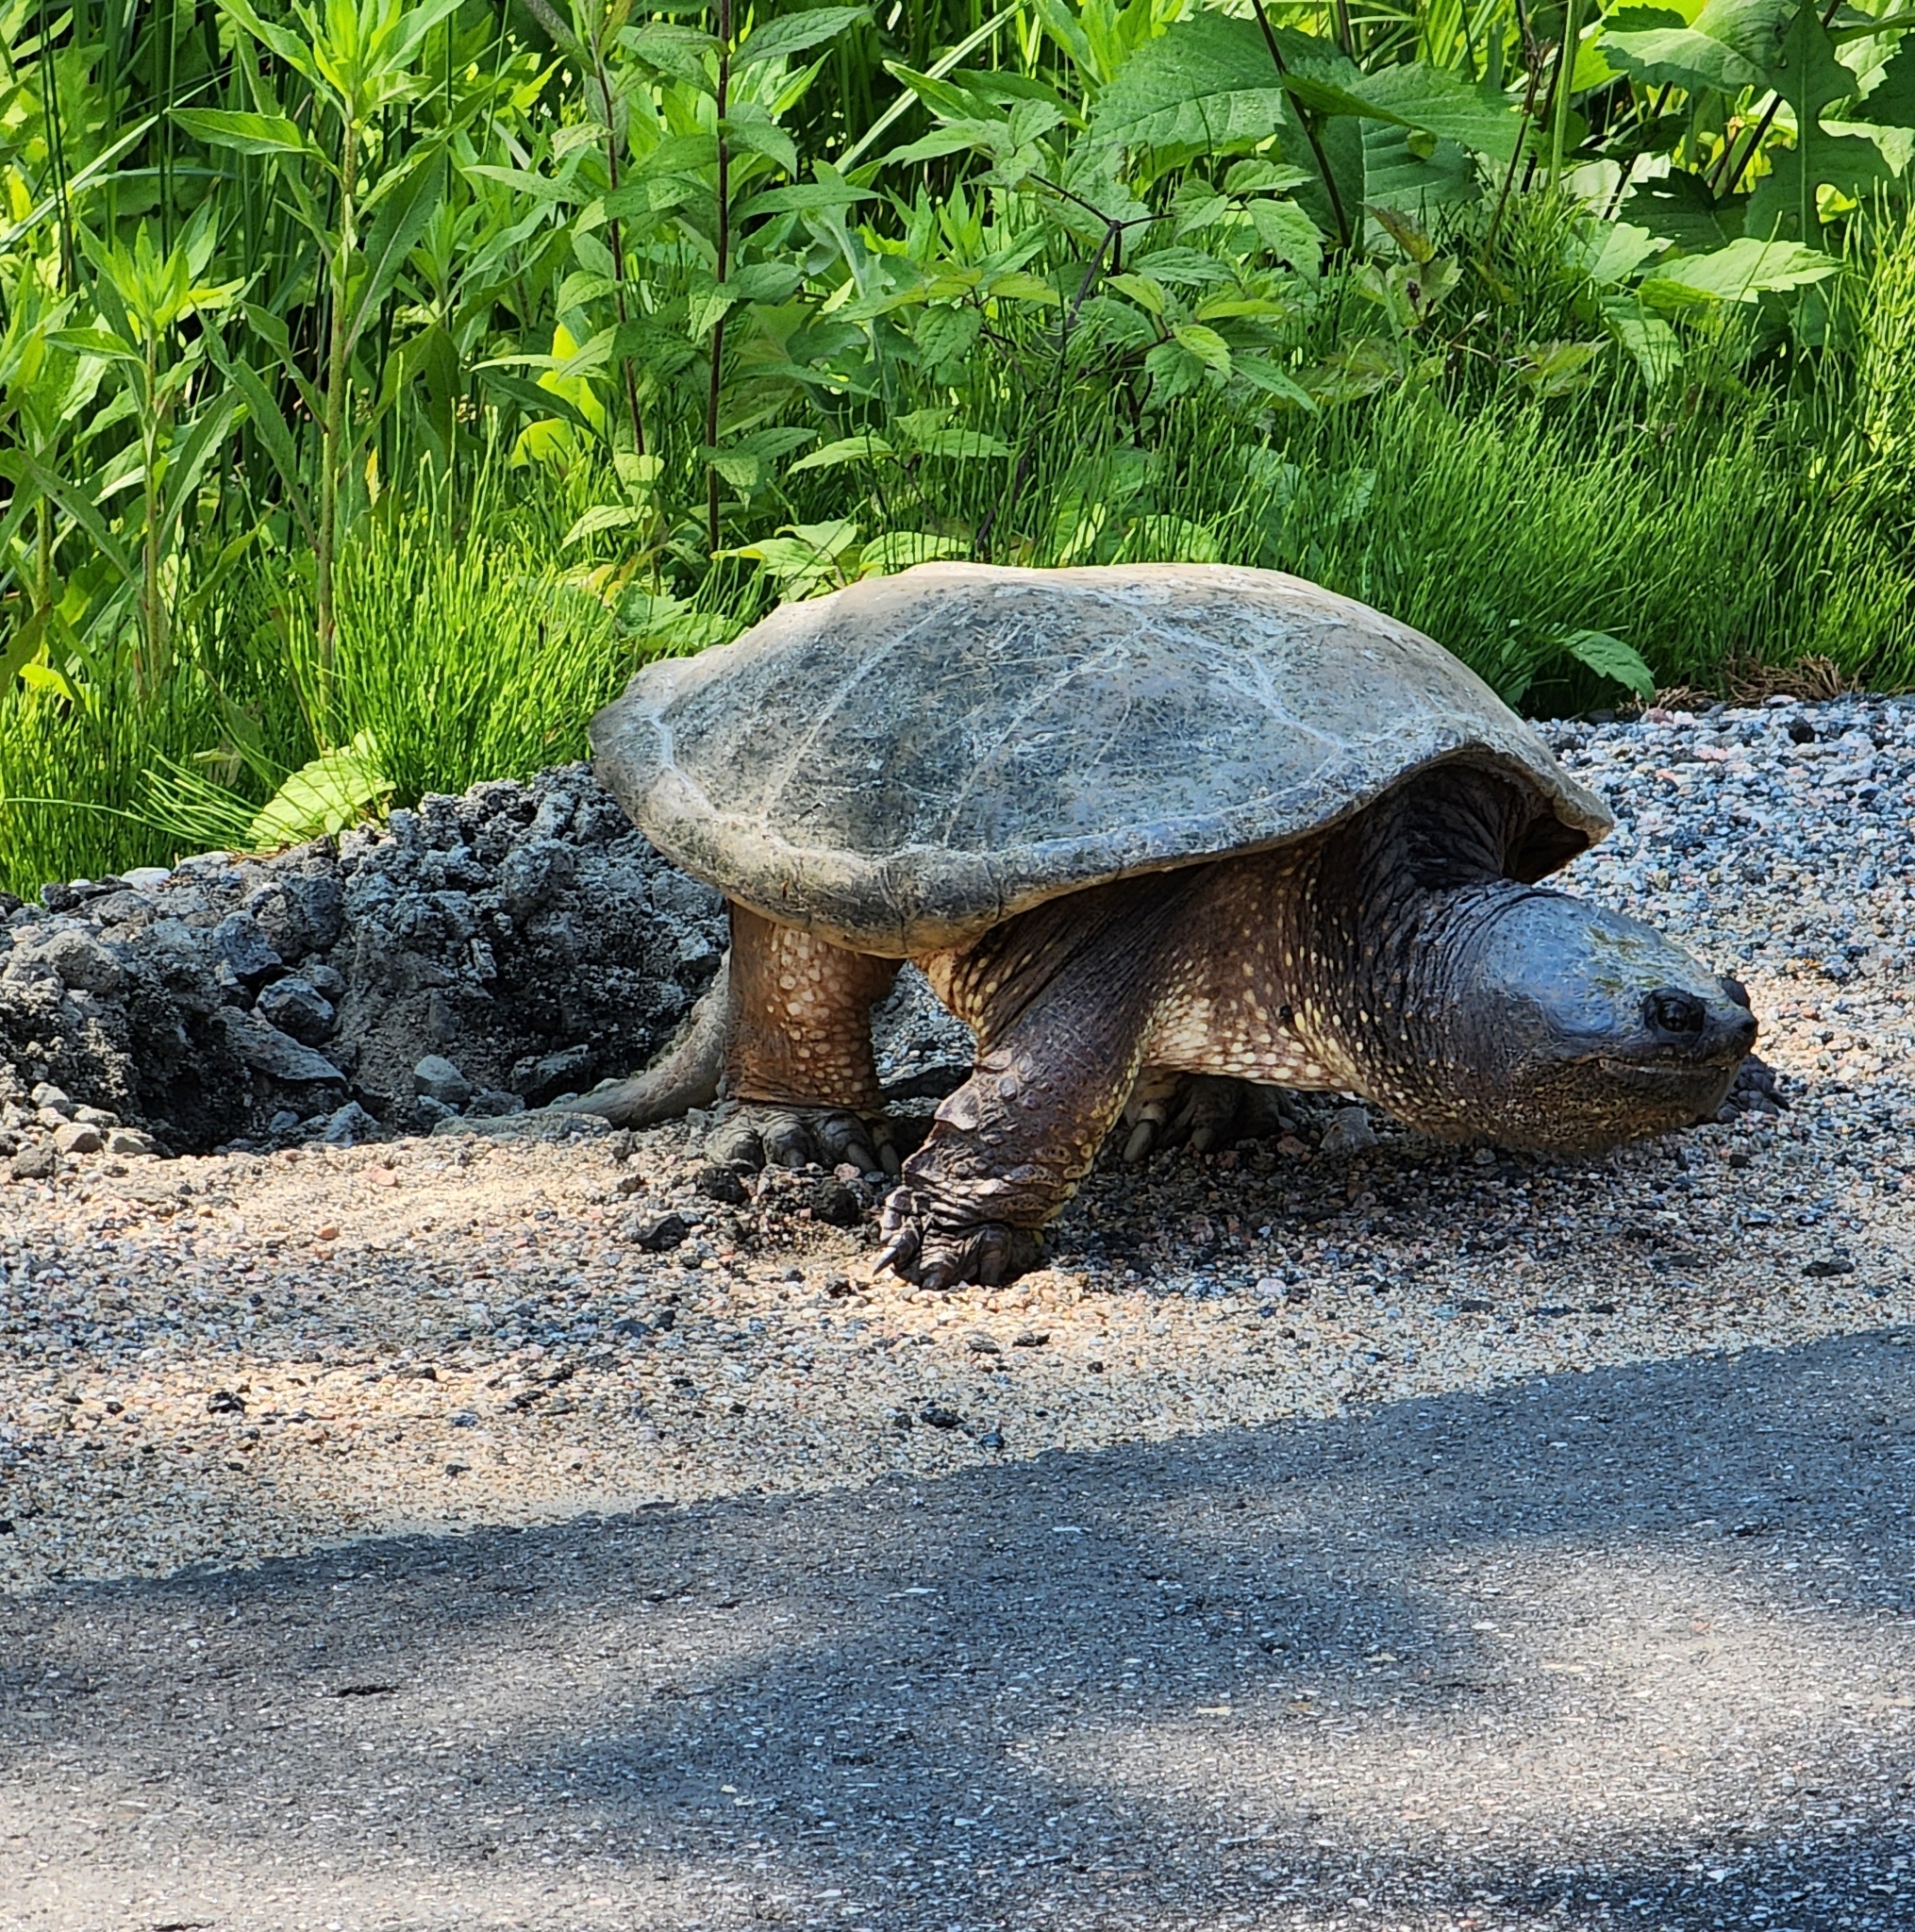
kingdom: Animalia
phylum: Chordata
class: Testudines
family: Chelydridae
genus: Chelydra
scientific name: Chelydra serpentina
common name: Common snapping turtle
